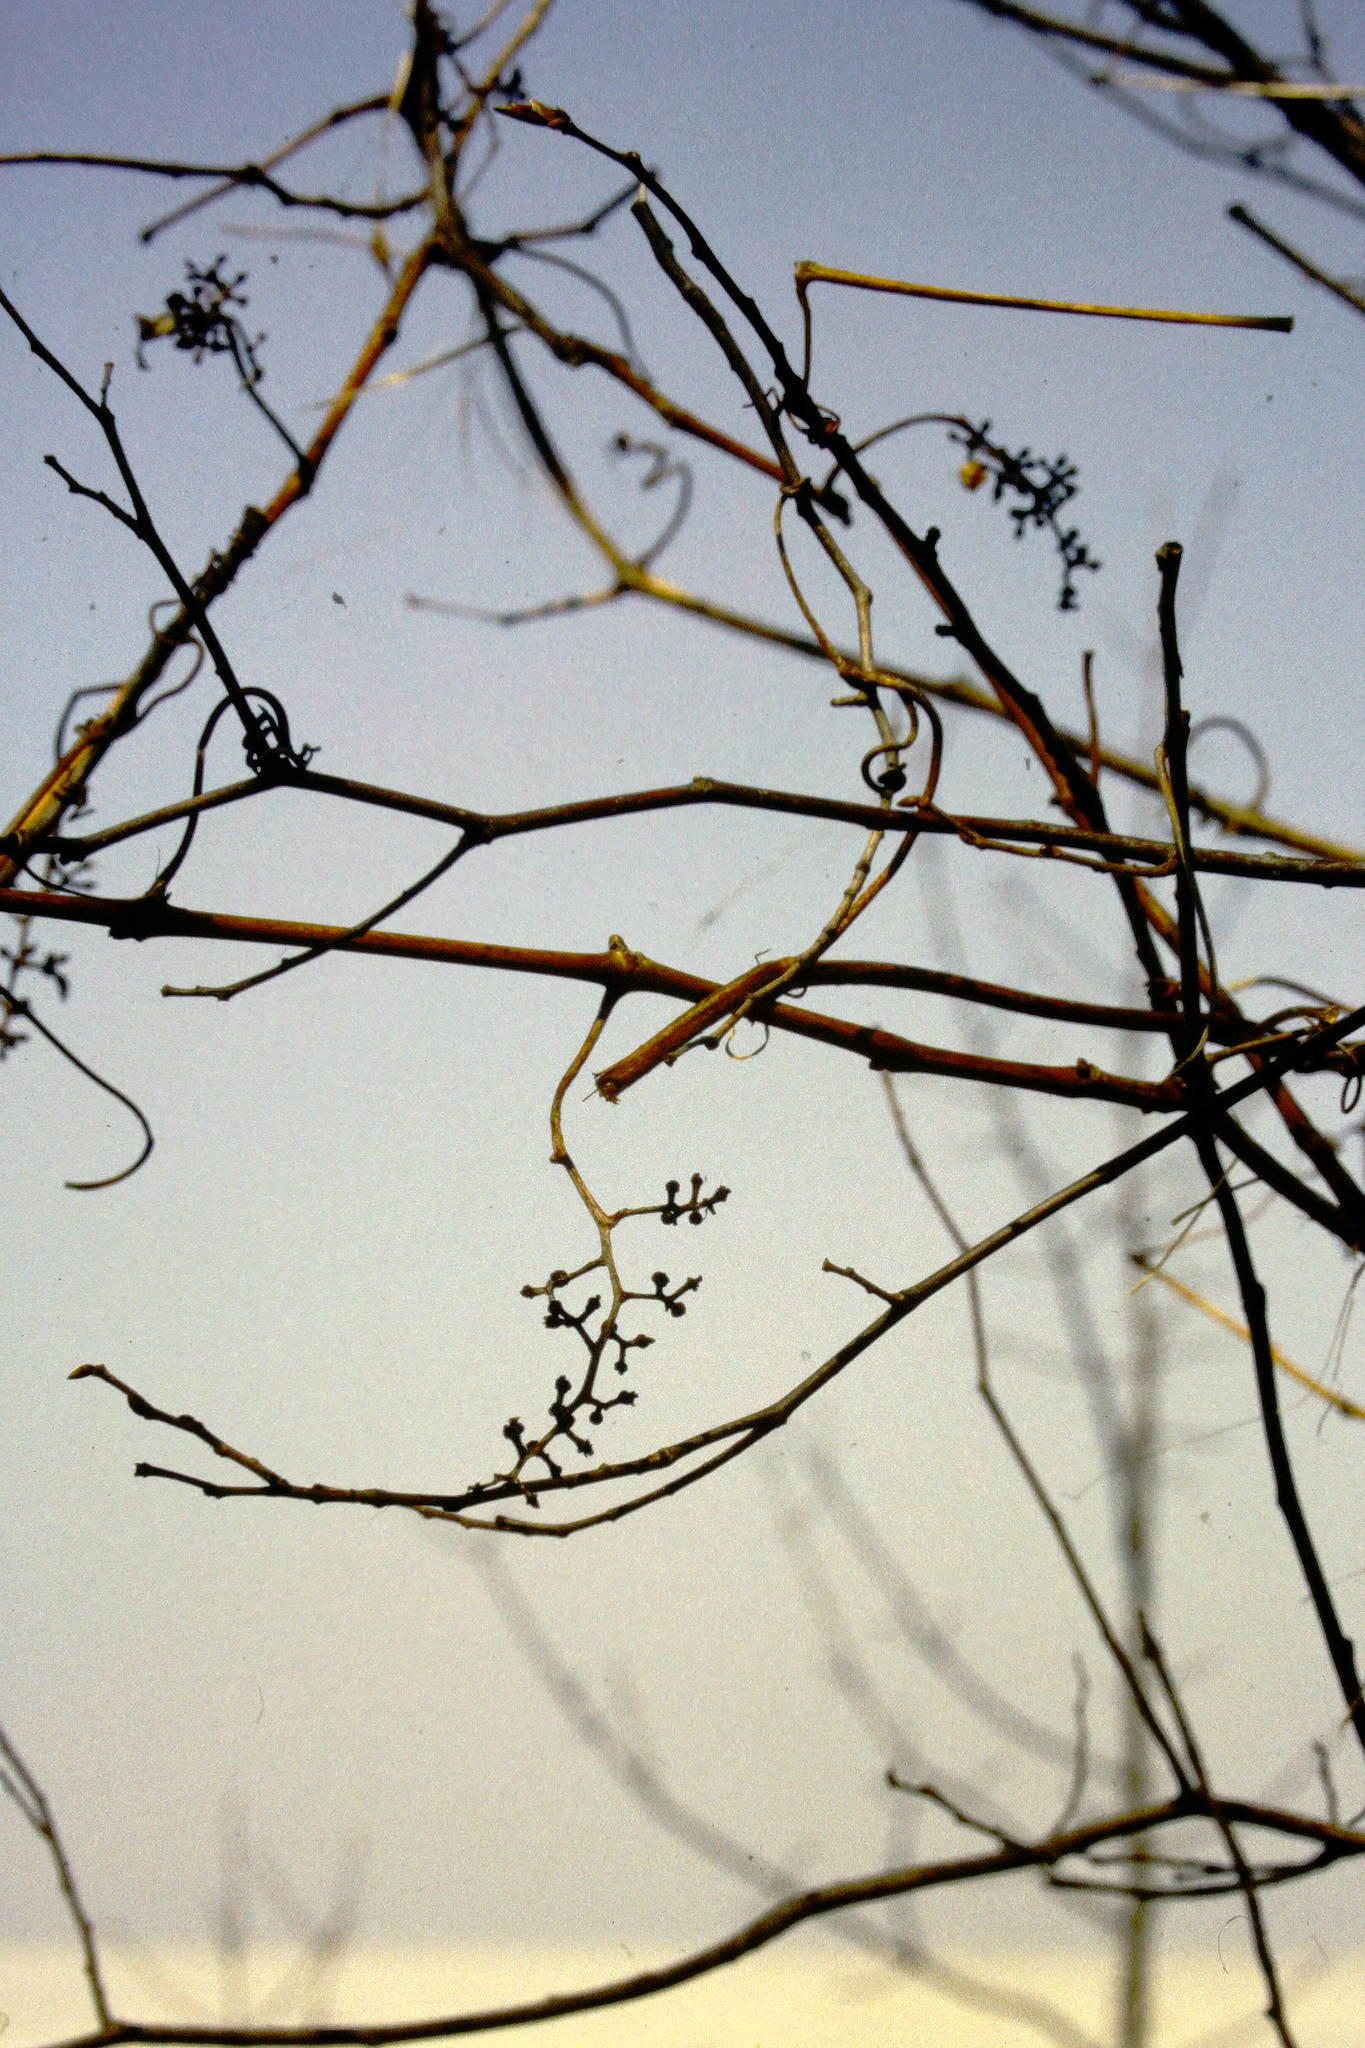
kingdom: Plantae
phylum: Tracheophyta
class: Magnoliopsida
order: Vitales
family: Vitaceae
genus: Vitis
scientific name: Vitis riparia
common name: Frost grape
